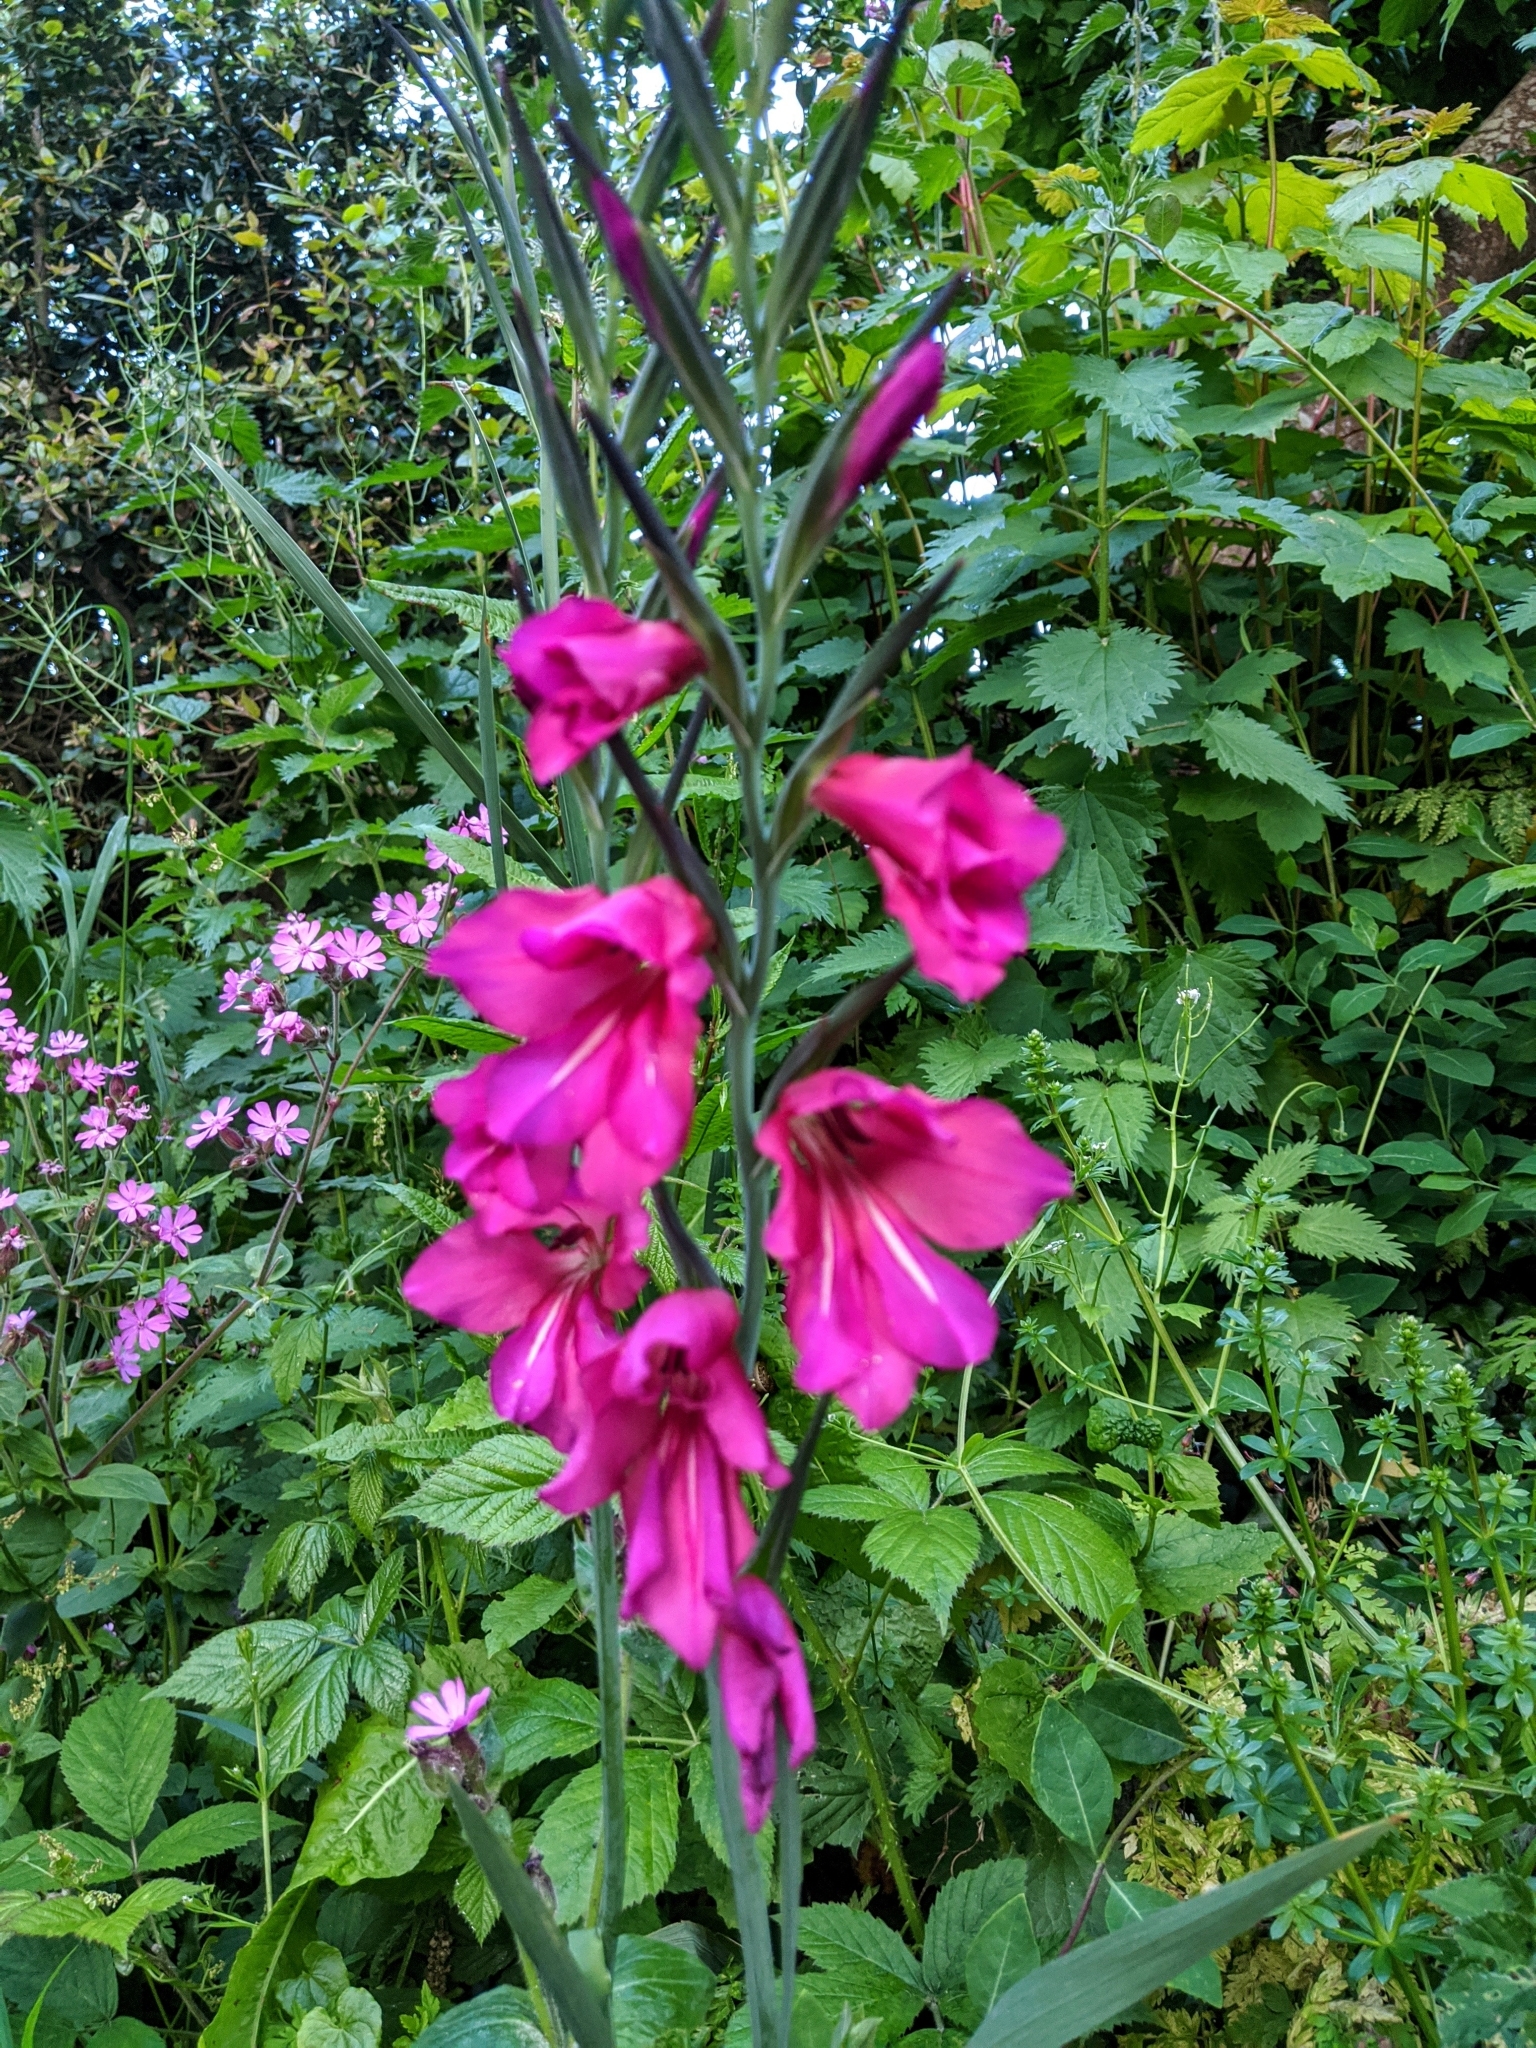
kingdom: Plantae
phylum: Tracheophyta
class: Liliopsida
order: Asparagales
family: Iridaceae
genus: Gladiolus
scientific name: Gladiolus communis
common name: Eastern gladiolus
